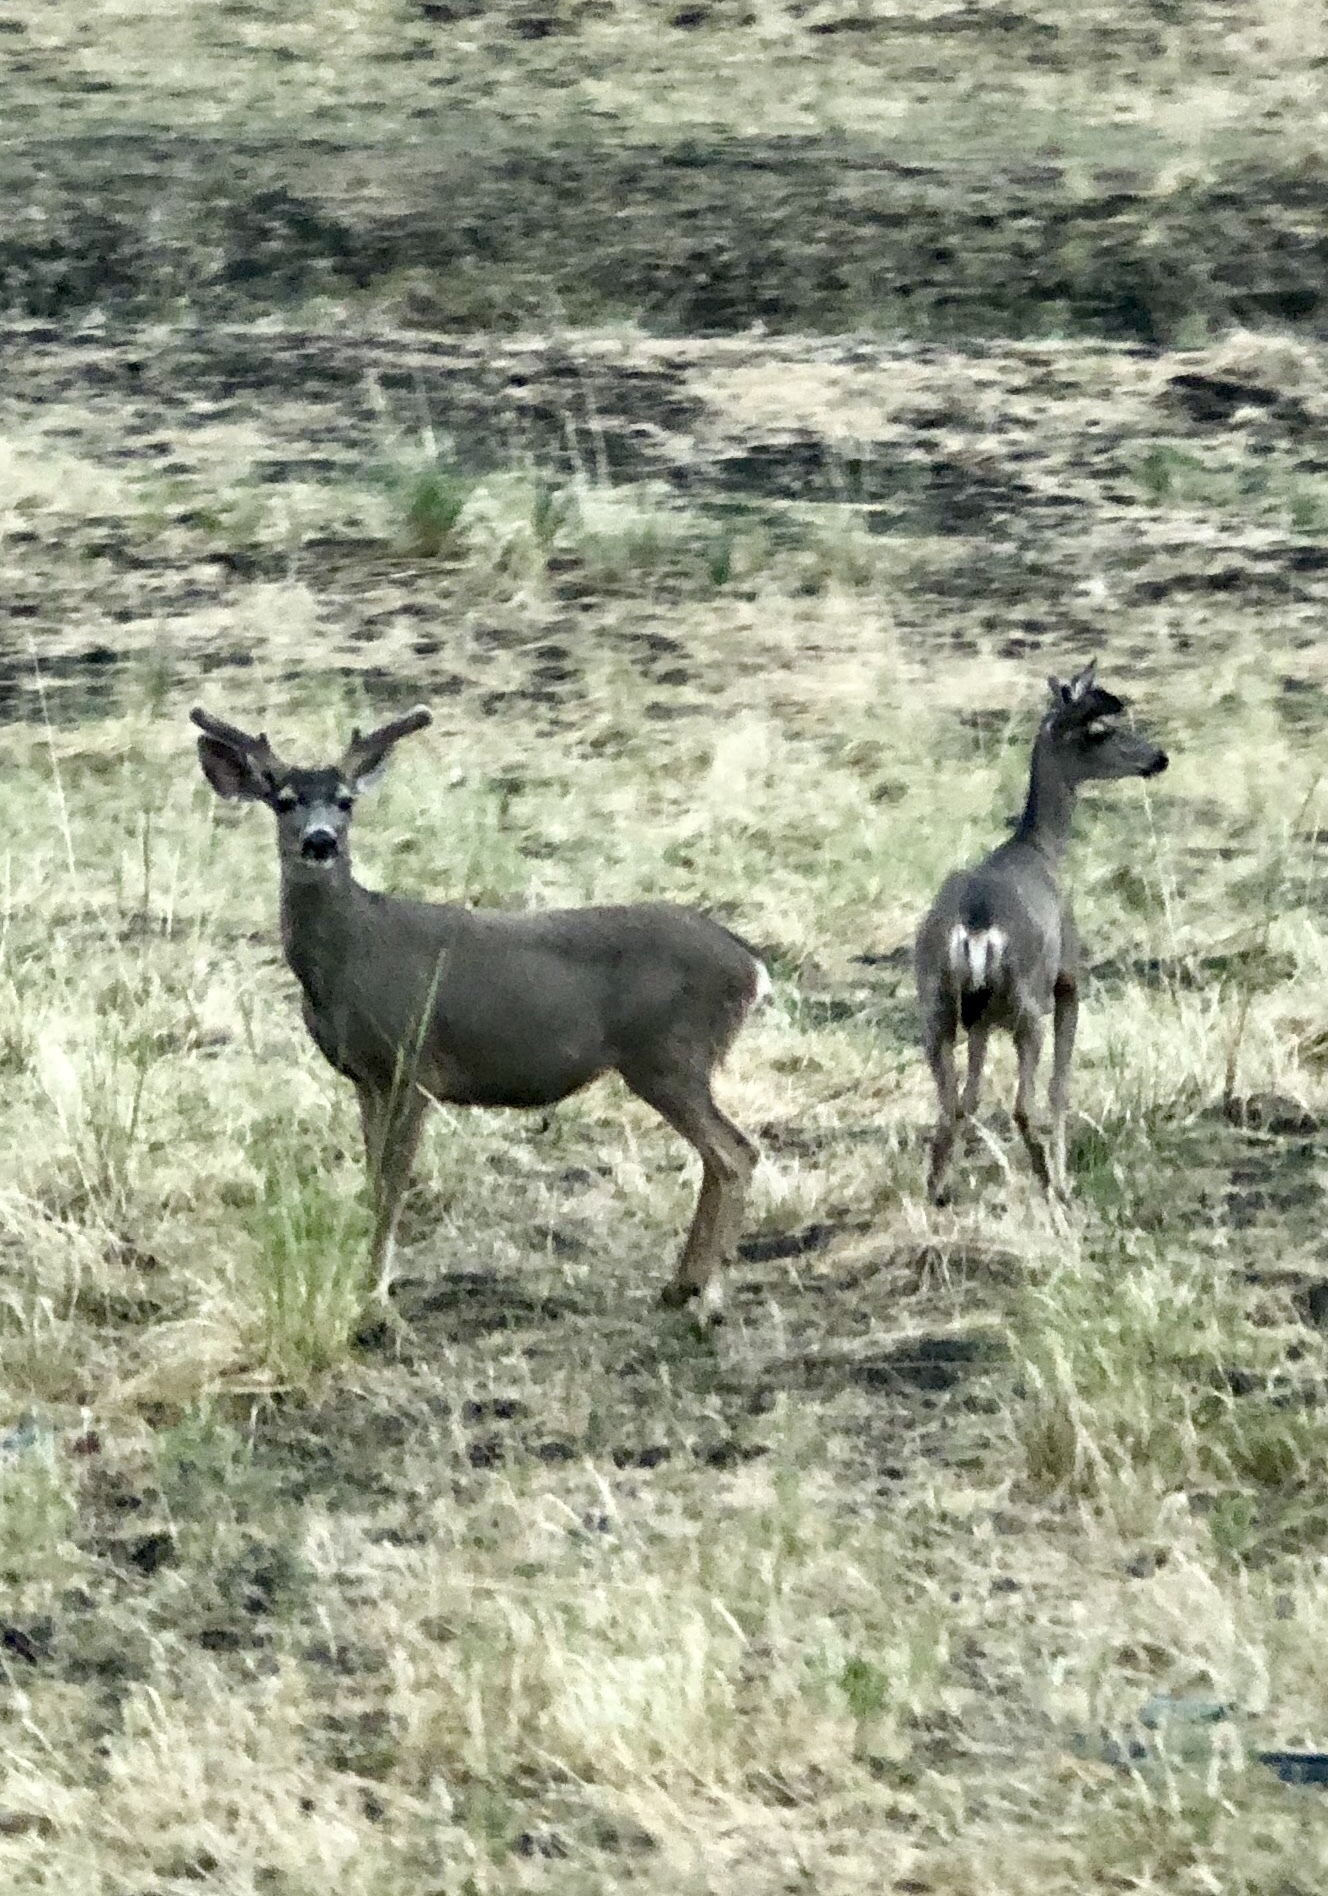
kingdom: Animalia
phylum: Chordata
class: Mammalia
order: Artiodactyla
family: Cervidae
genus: Odocoileus
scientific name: Odocoileus hemionus
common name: Mule deer
